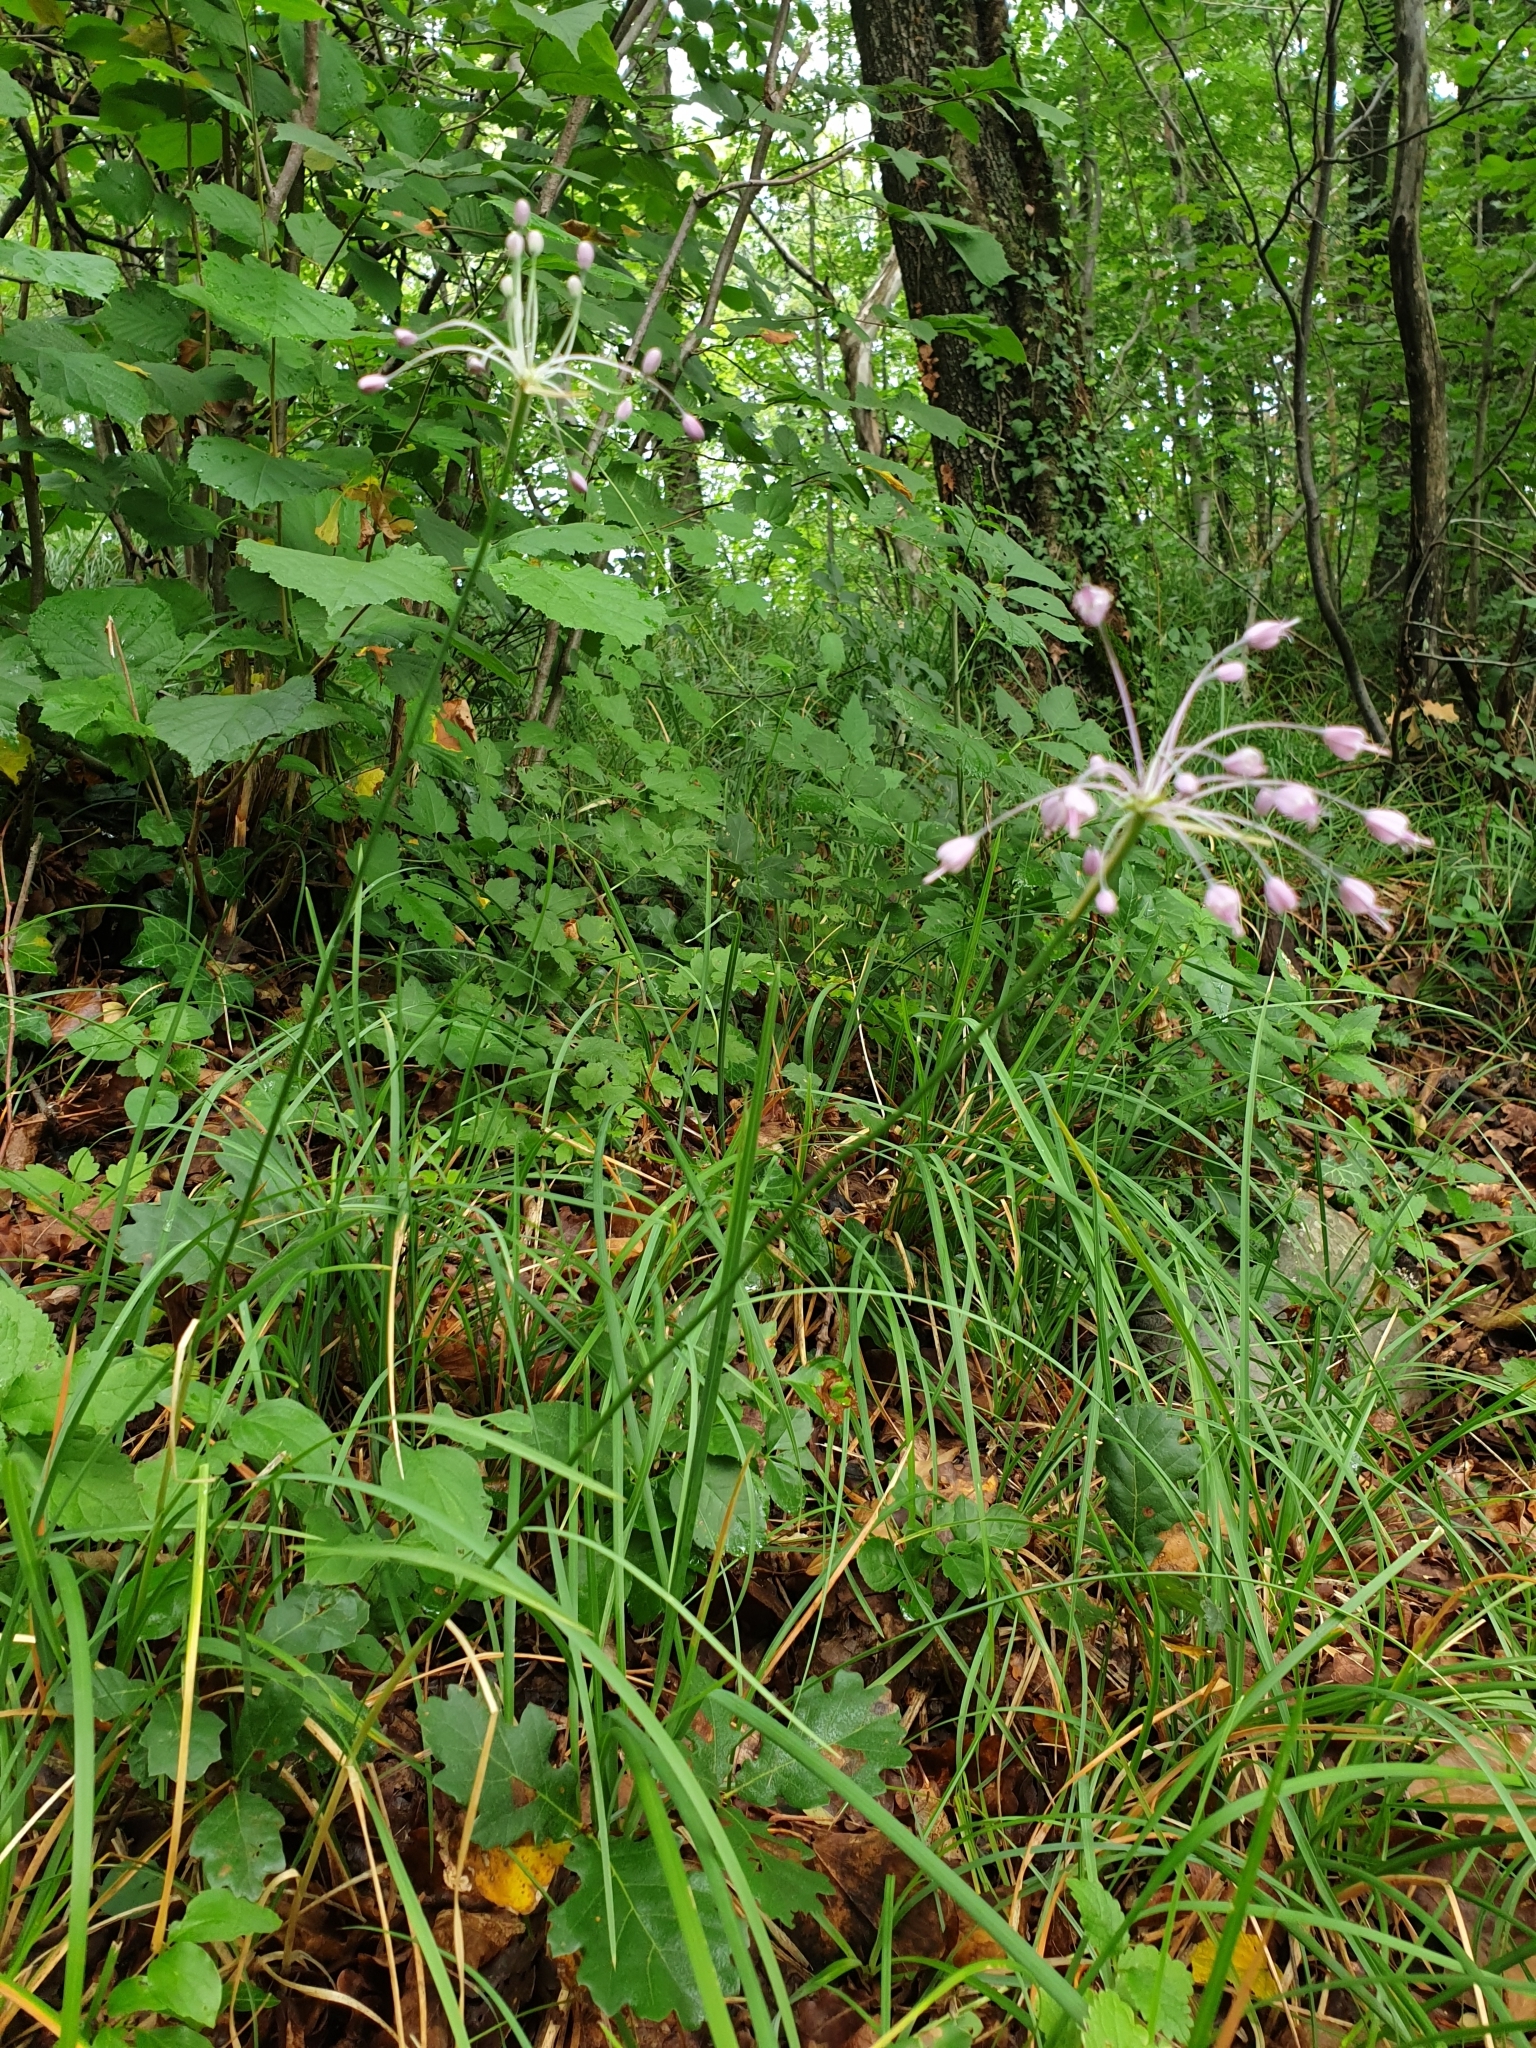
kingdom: Plantae
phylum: Tracheophyta
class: Liliopsida
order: Asparagales
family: Amaryllidaceae
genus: Allium
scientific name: Allium carinatum
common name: Keeled garlic
